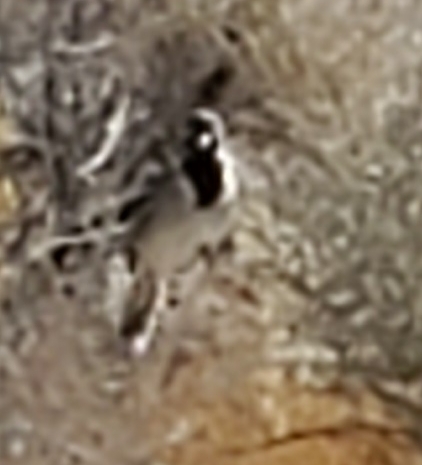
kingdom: Animalia
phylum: Chordata
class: Aves
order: Passeriformes
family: Passerellidae
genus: Amphispiza
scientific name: Amphispiza bilineata
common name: Black-throated sparrow
